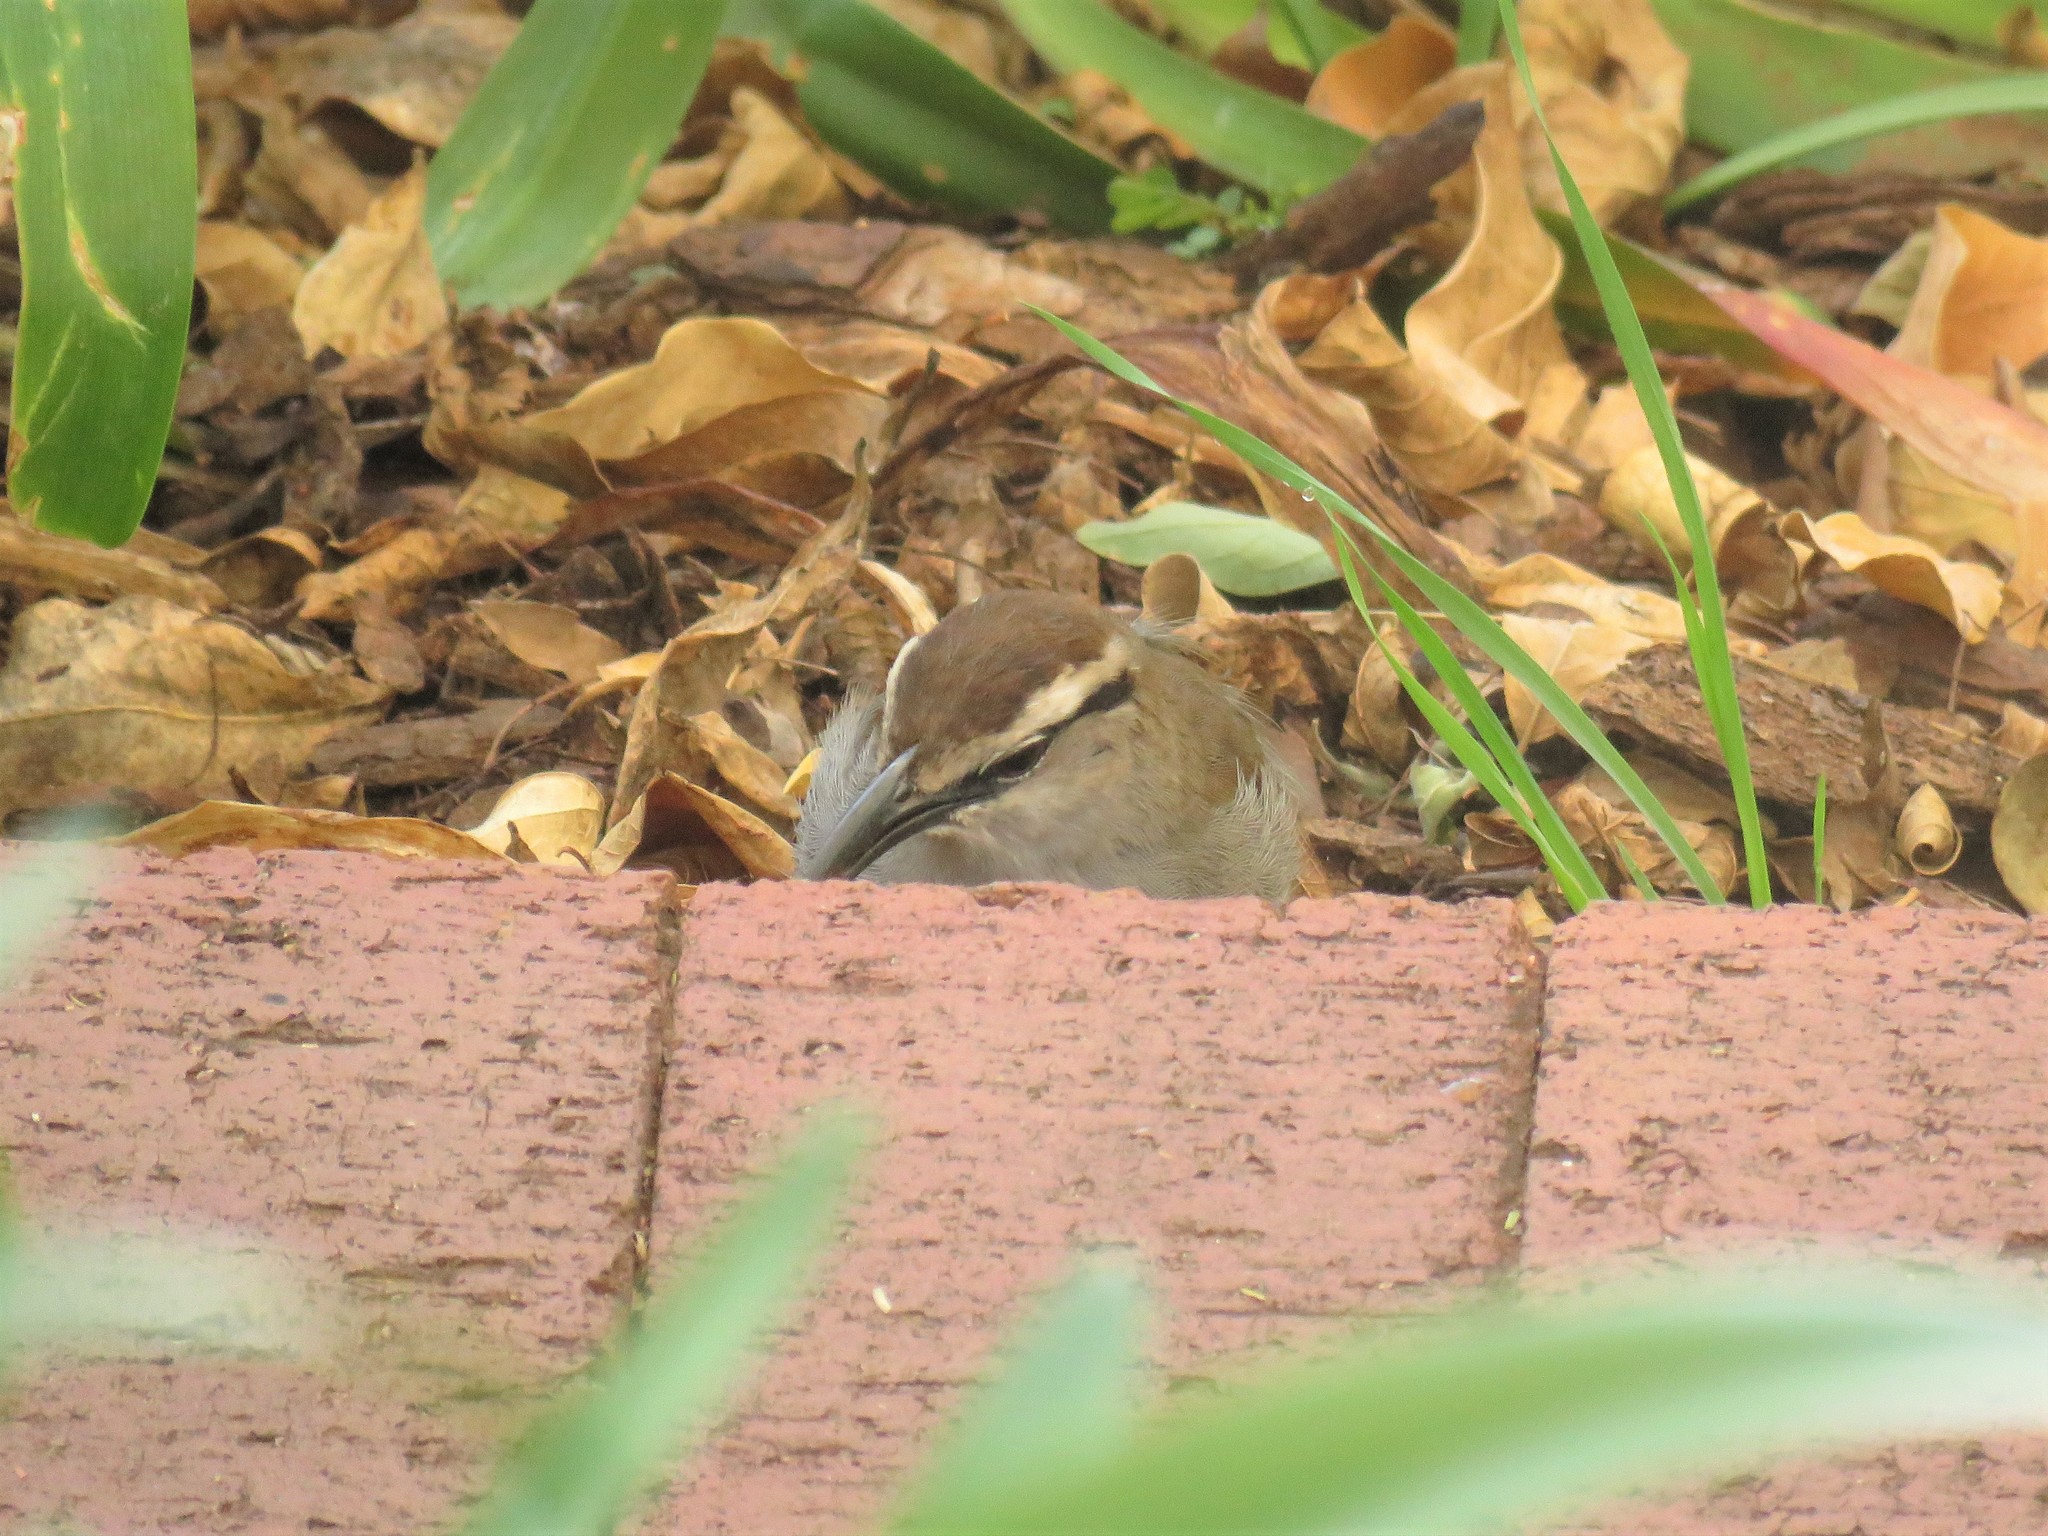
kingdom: Animalia
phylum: Chordata
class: Aves
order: Passeriformes
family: Malaconotidae
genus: Tchagra
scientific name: Tchagra tchagra
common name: Southern tchagra
